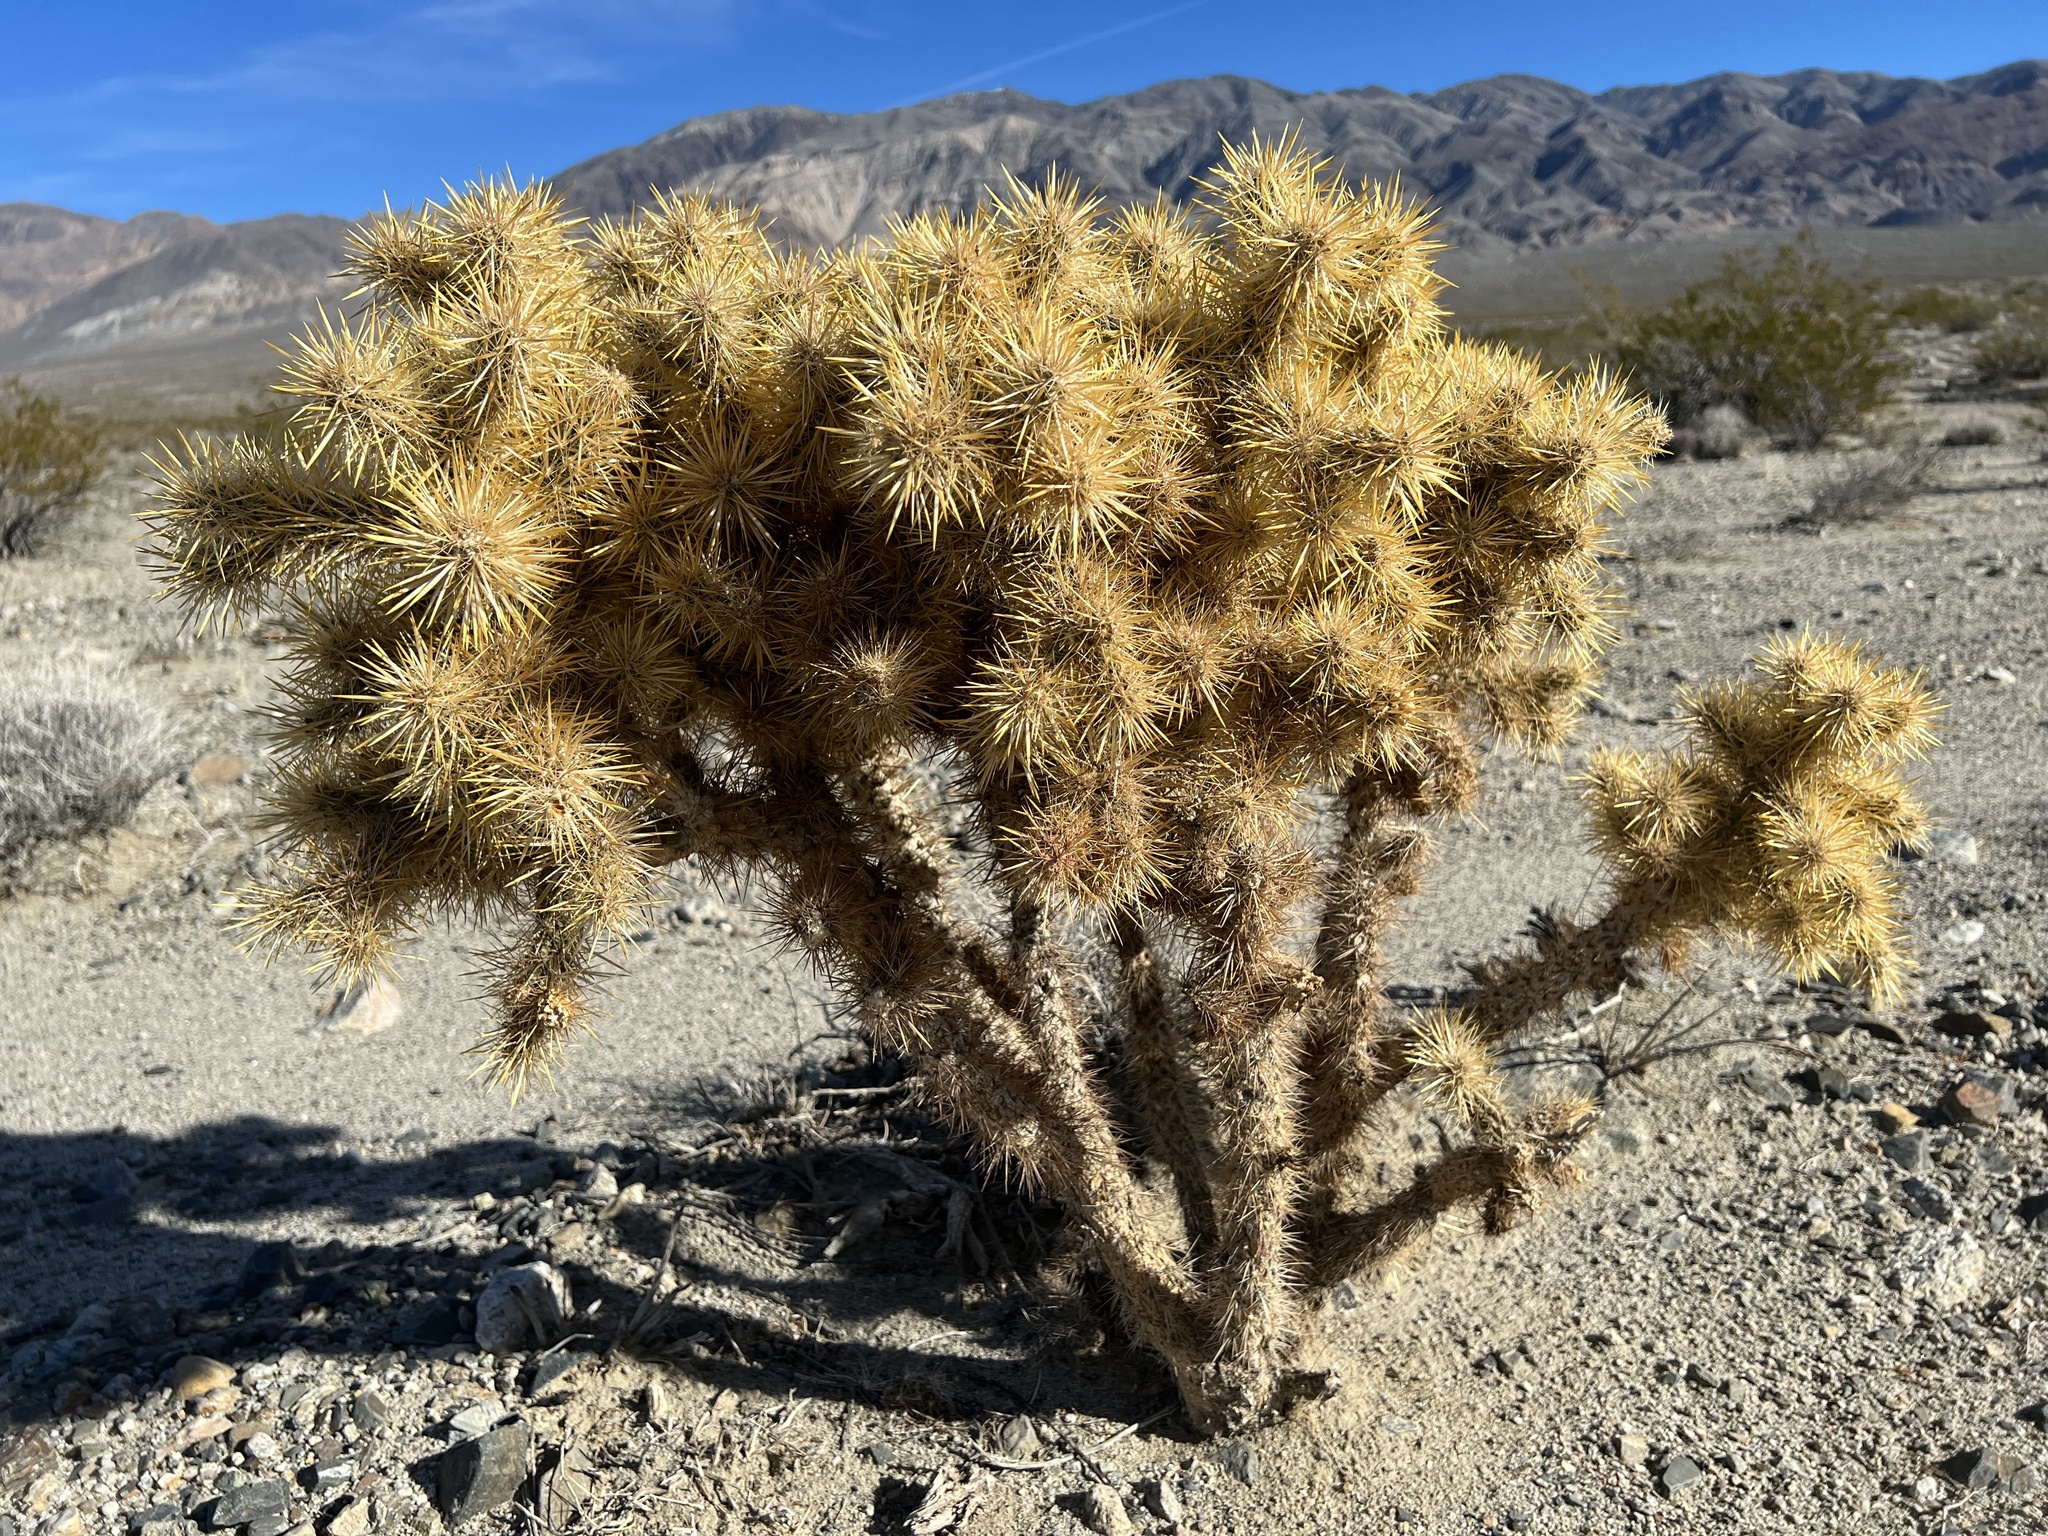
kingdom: Plantae
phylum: Tracheophyta
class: Magnoliopsida
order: Caryophyllales
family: Cactaceae
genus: Cylindropuntia
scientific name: Cylindropuntia echinocarpa
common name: Ground cholla
